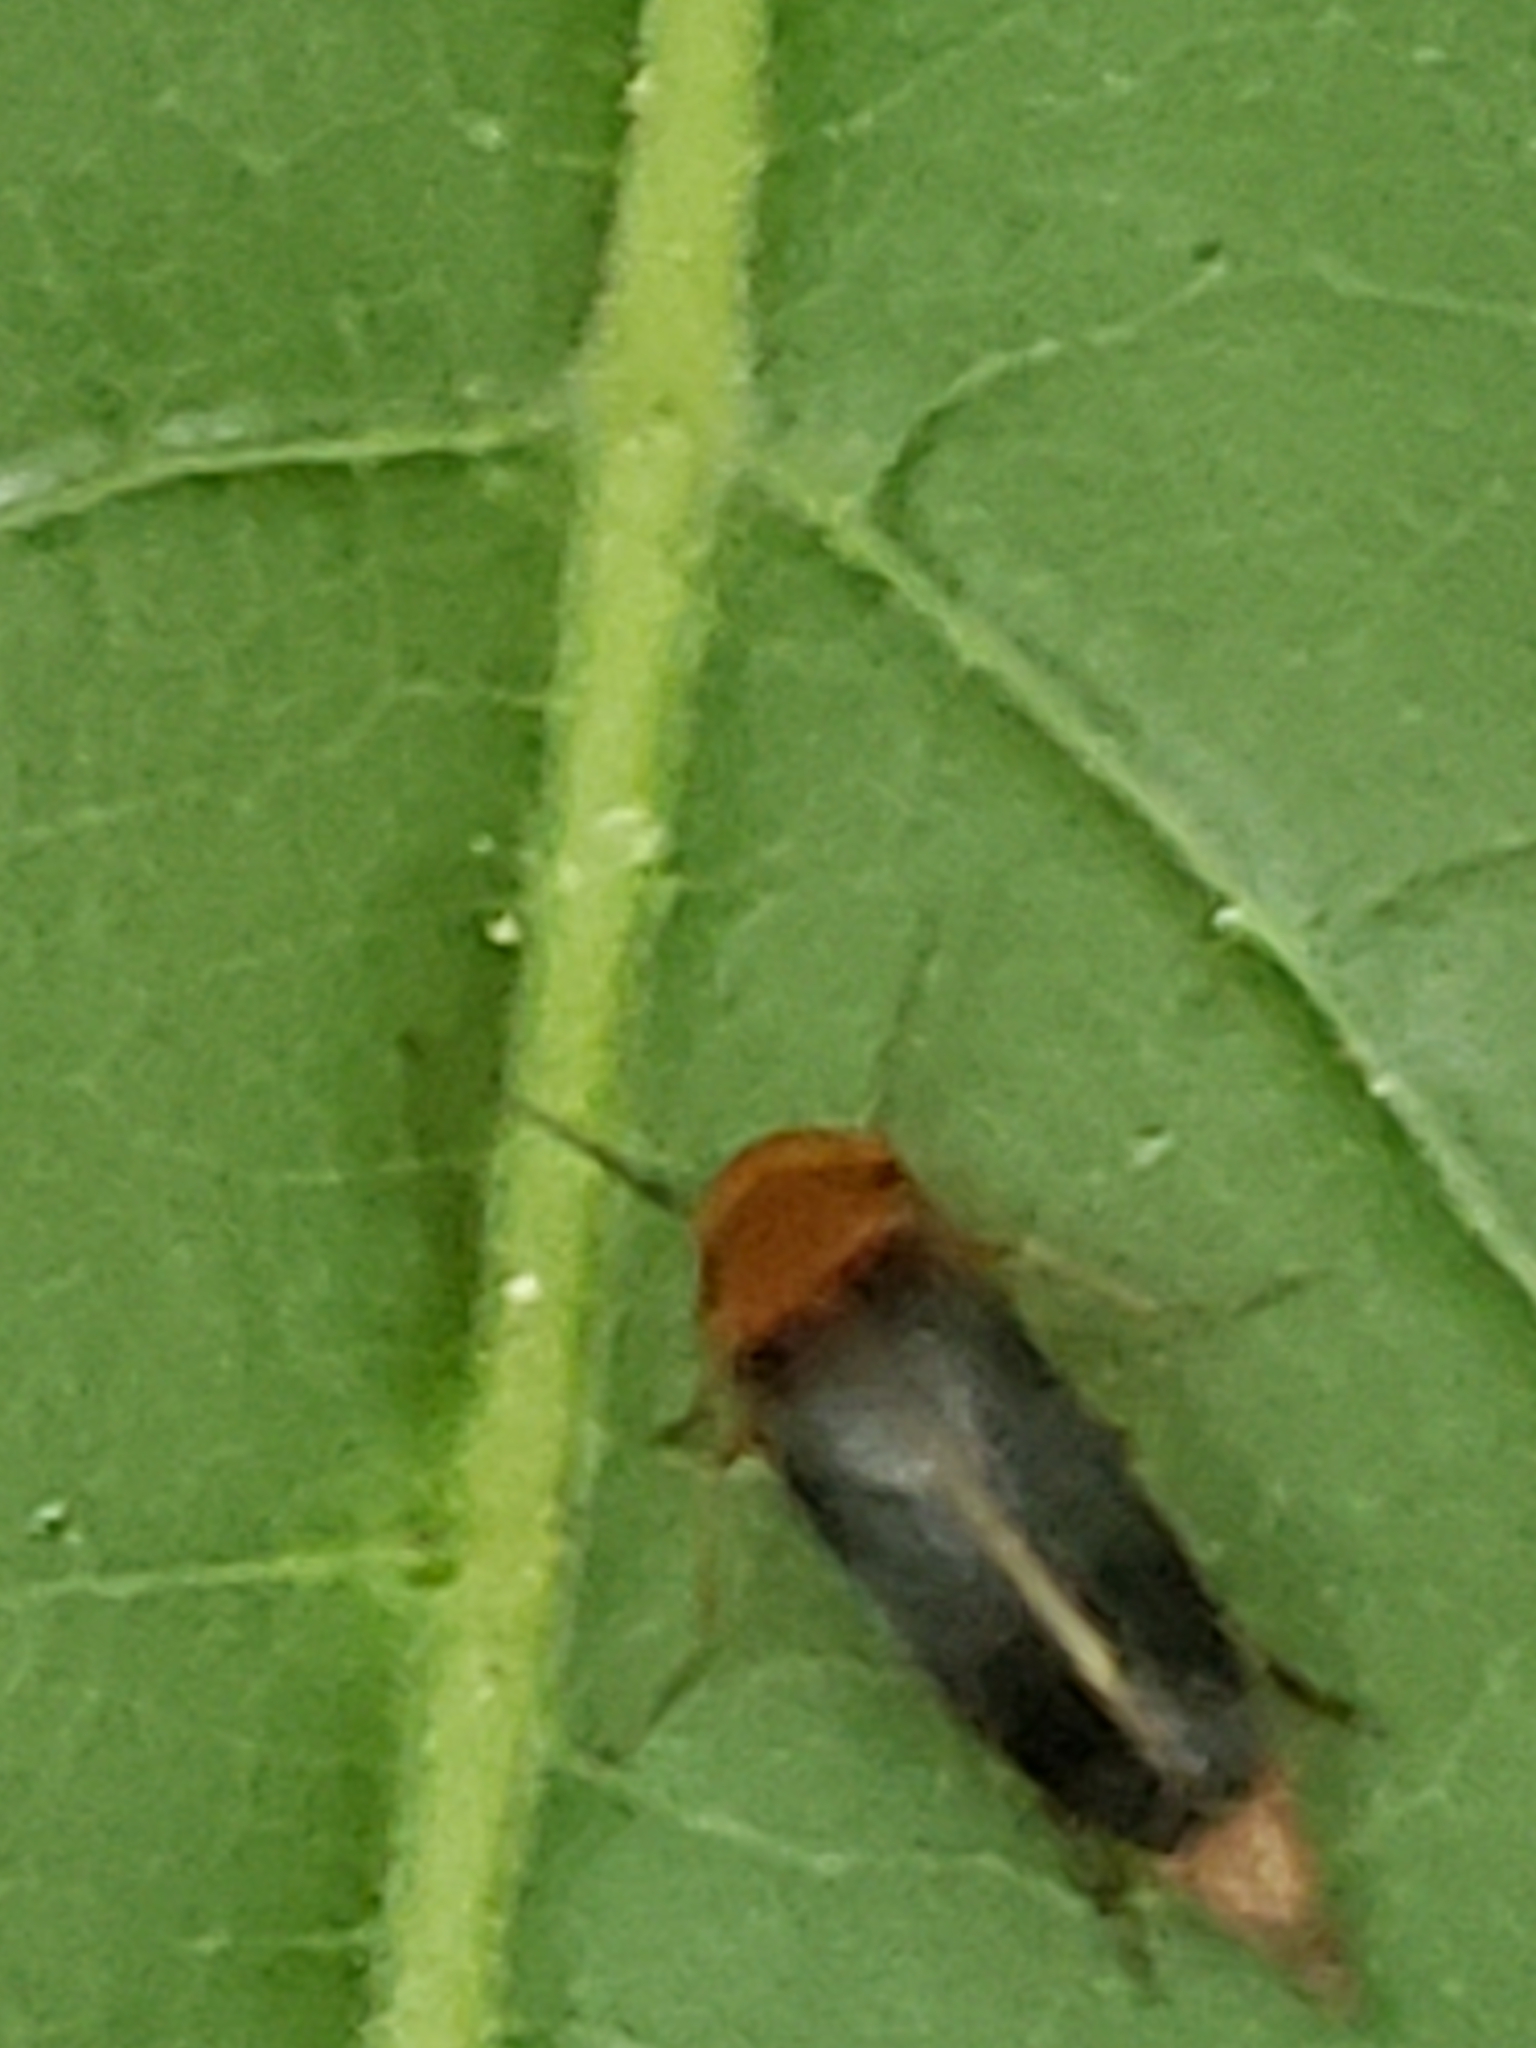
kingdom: Animalia
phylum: Arthropoda
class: Insecta
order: Coleoptera
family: Mordellidae
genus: Mordellistena
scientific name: Mordellistena fuscipennis
